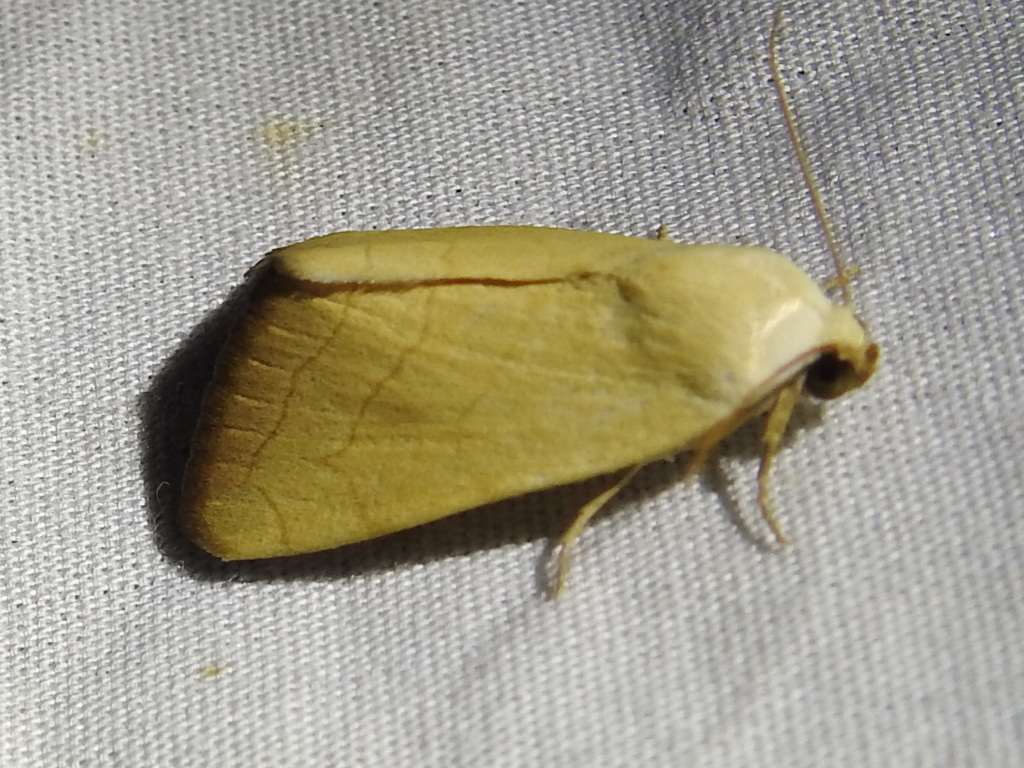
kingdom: Animalia
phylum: Arthropoda
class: Insecta
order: Lepidoptera
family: Noctuidae
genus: Bagisara
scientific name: Bagisara buxea
